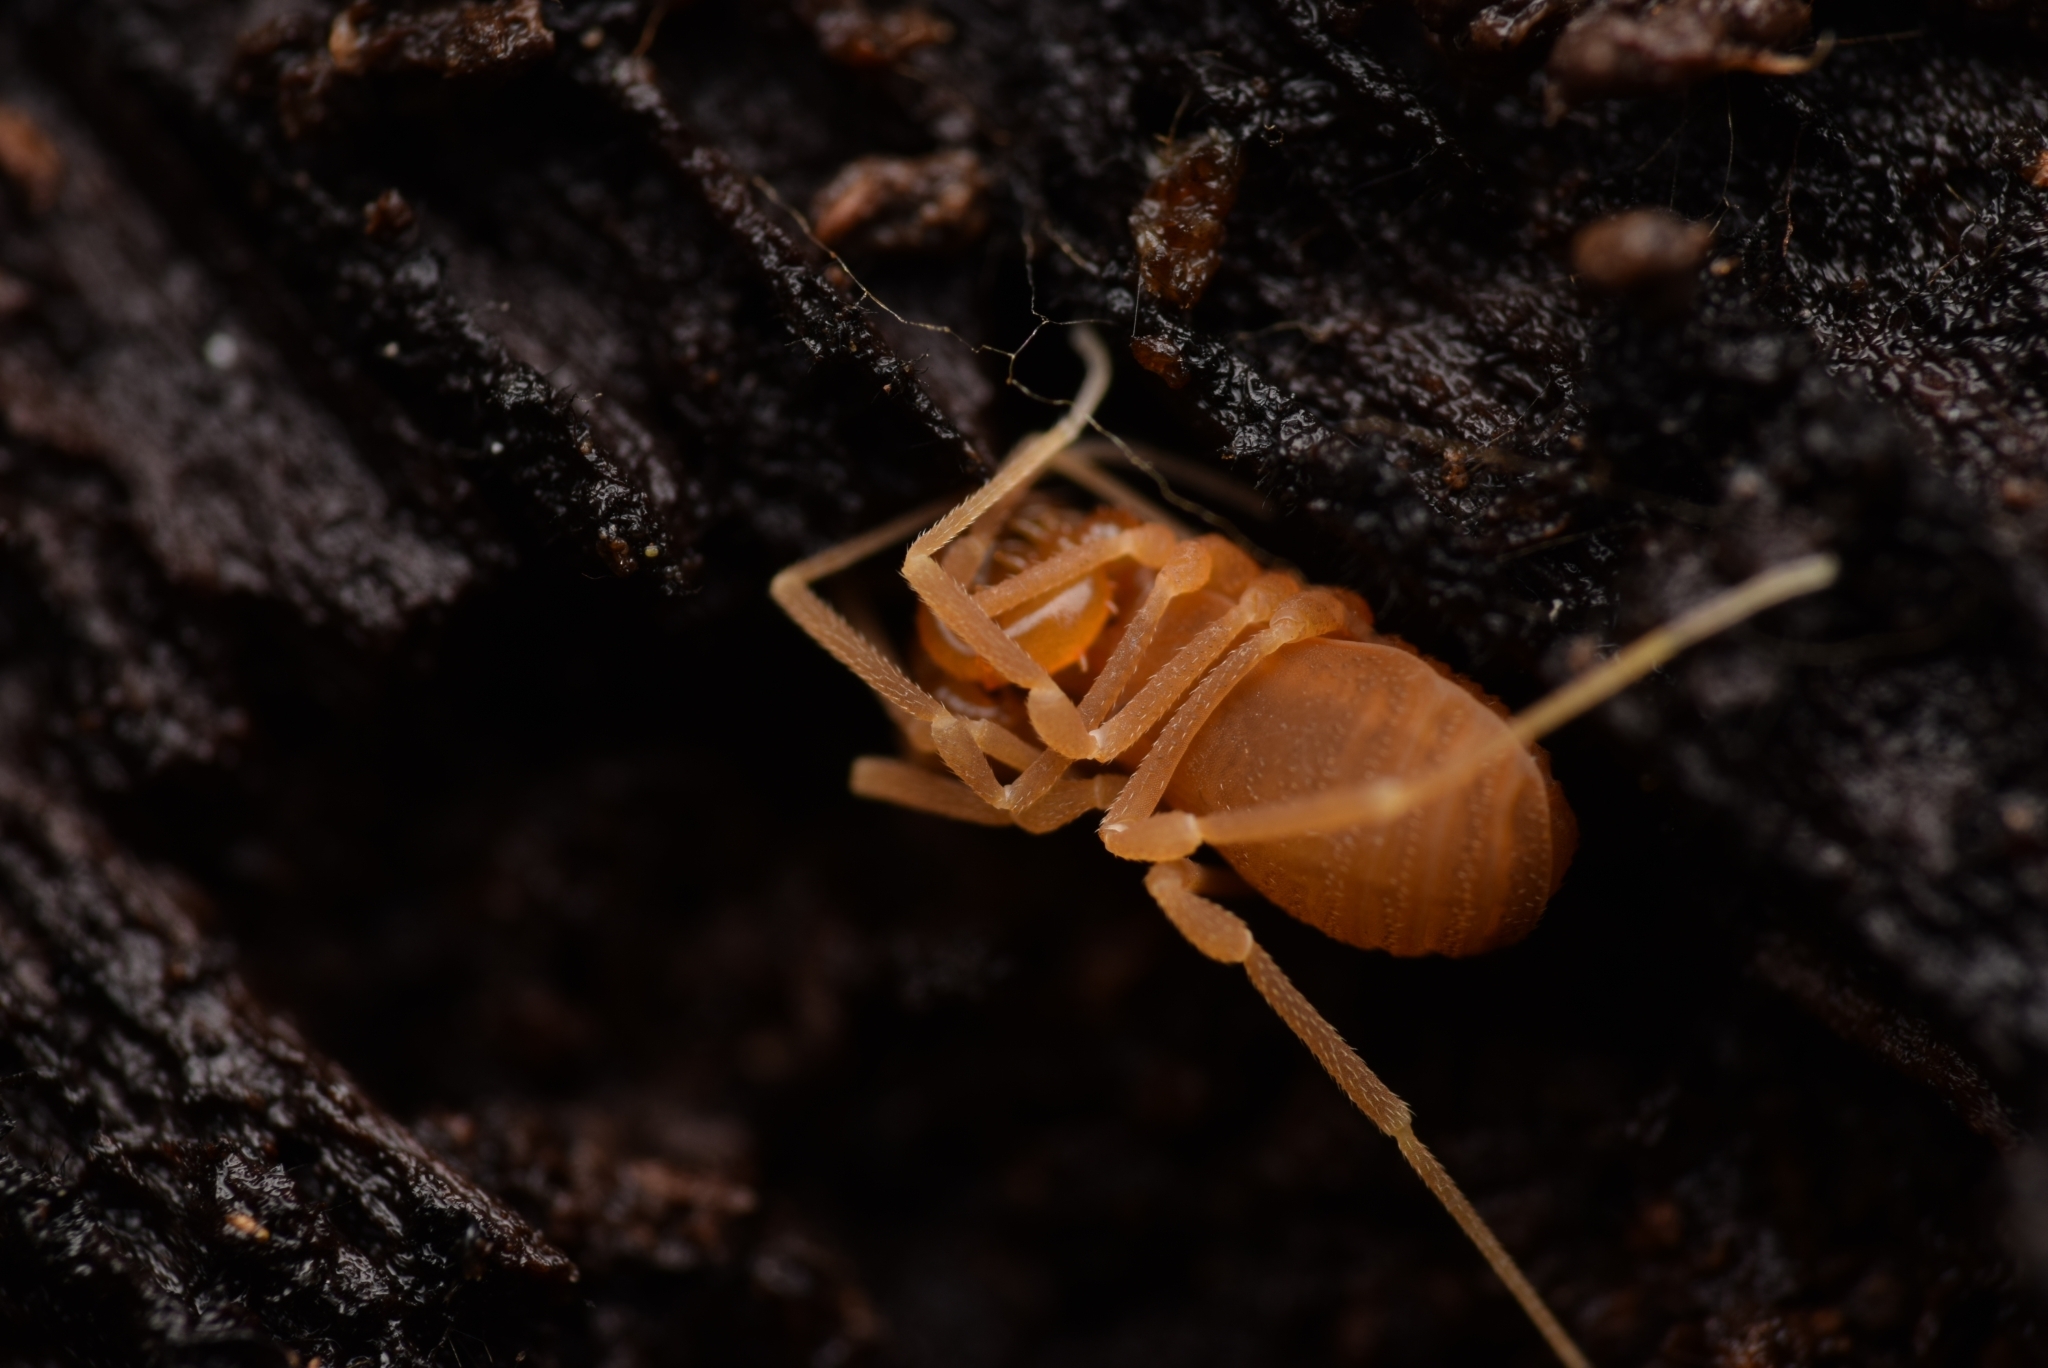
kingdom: Animalia
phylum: Arthropoda
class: Arachnida
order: Opiliones
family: Cladonychiidae
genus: Holoscotolemon
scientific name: Holoscotolemon querilhaci
